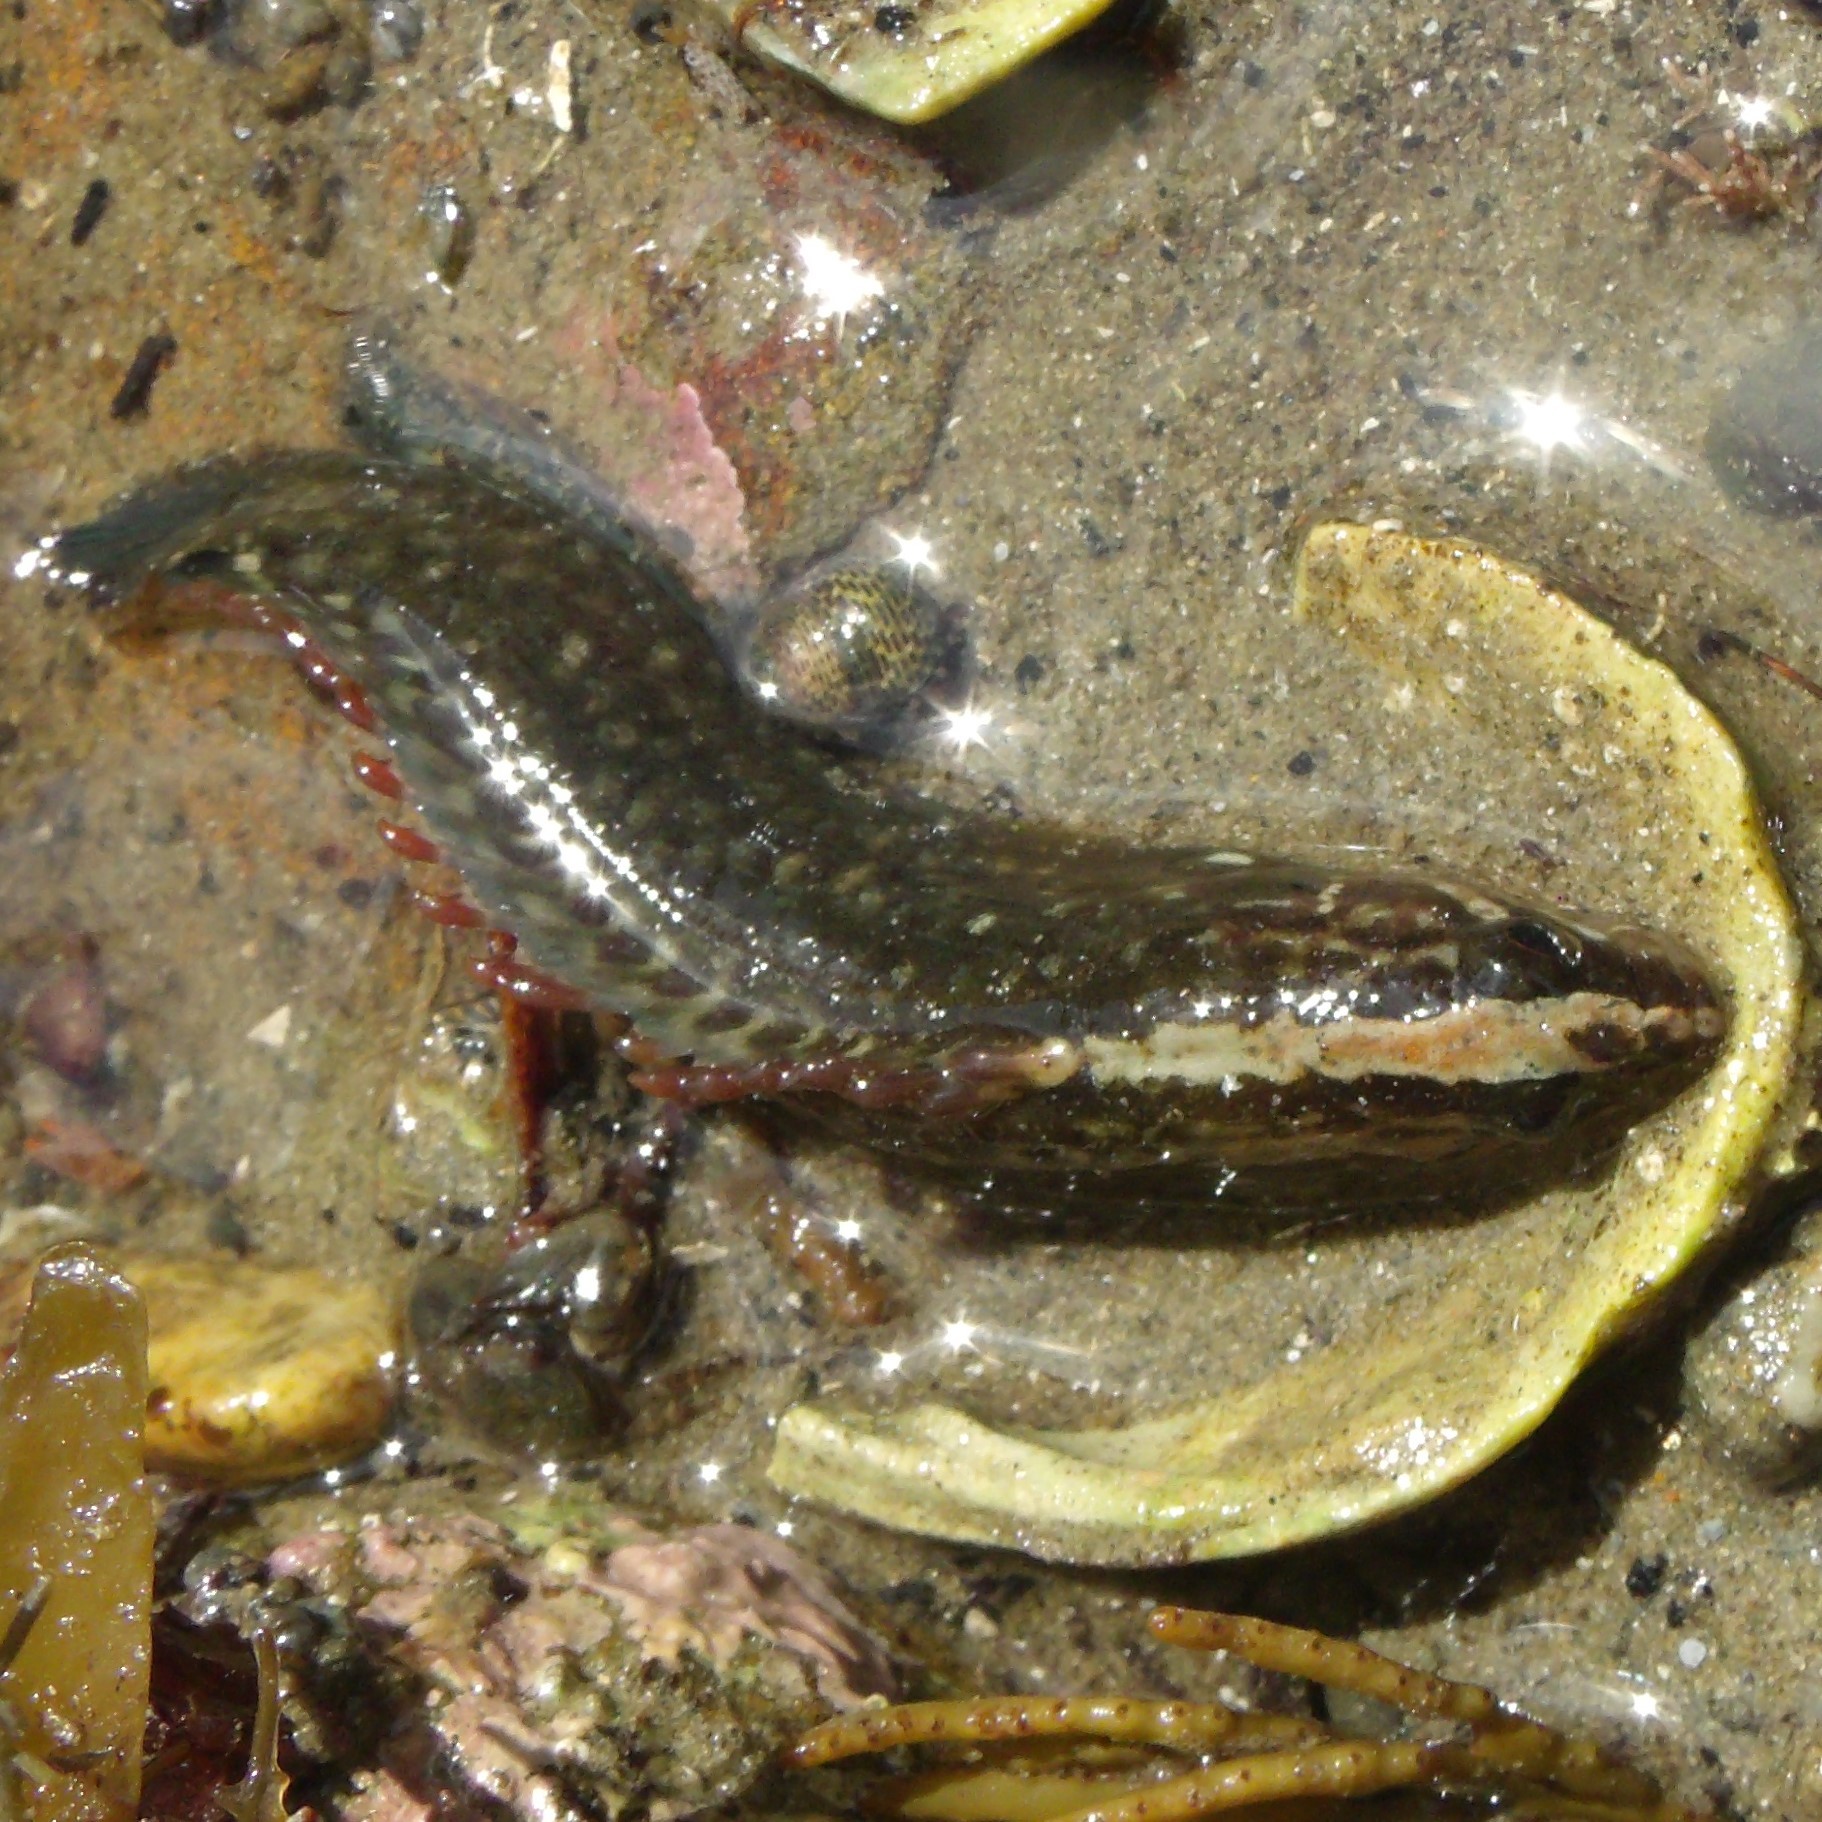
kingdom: Animalia
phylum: Chordata
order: Perciformes
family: Plesiopidae
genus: Acanthoclinus
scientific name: Acanthoclinus fuscus
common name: Olive rockfish
